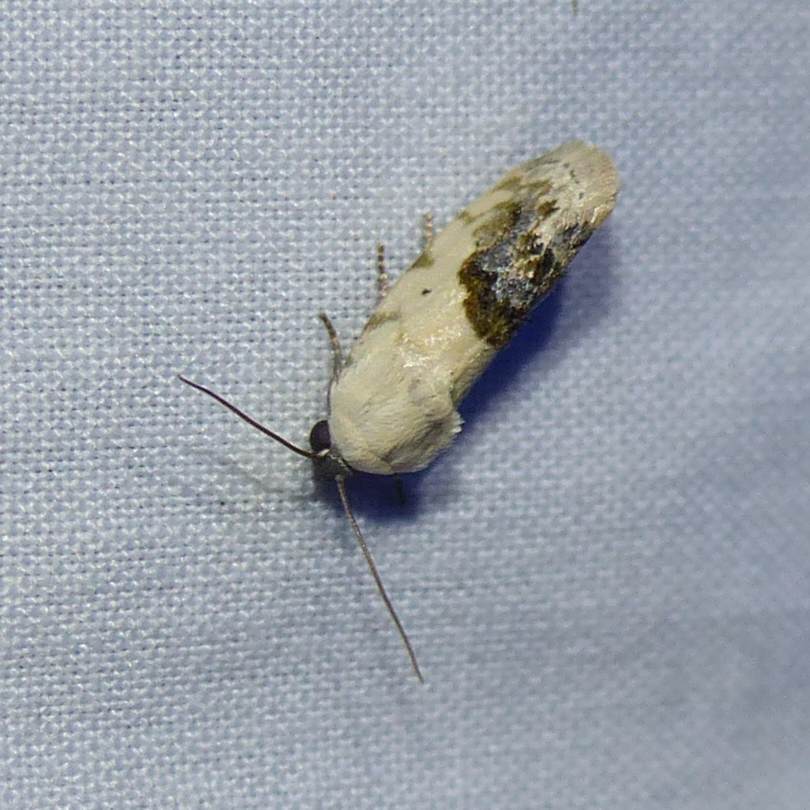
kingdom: Animalia
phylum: Arthropoda
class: Insecta
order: Lepidoptera
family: Noctuidae
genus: Acontia
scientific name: Acontia erastrioides
